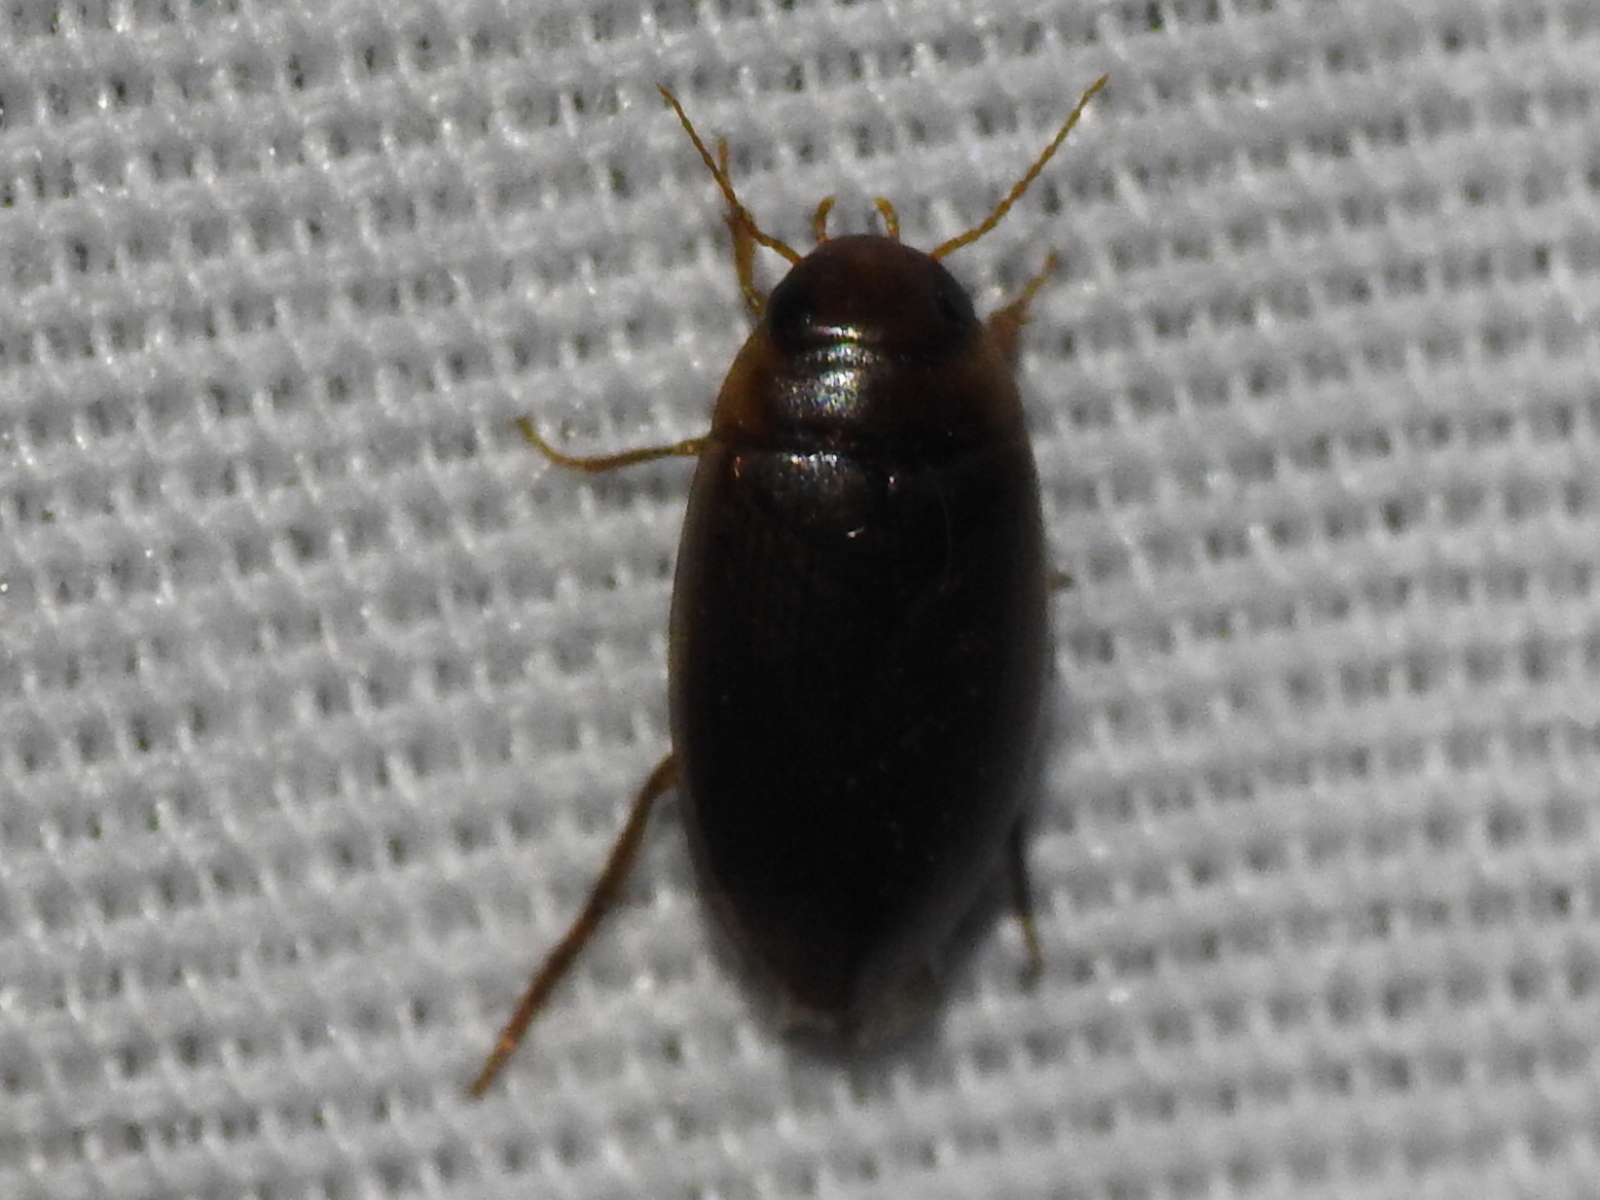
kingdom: Animalia
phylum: Arthropoda
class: Insecta
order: Coleoptera
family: Dytiscidae
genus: Copelatus
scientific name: Copelatus chevrolati
